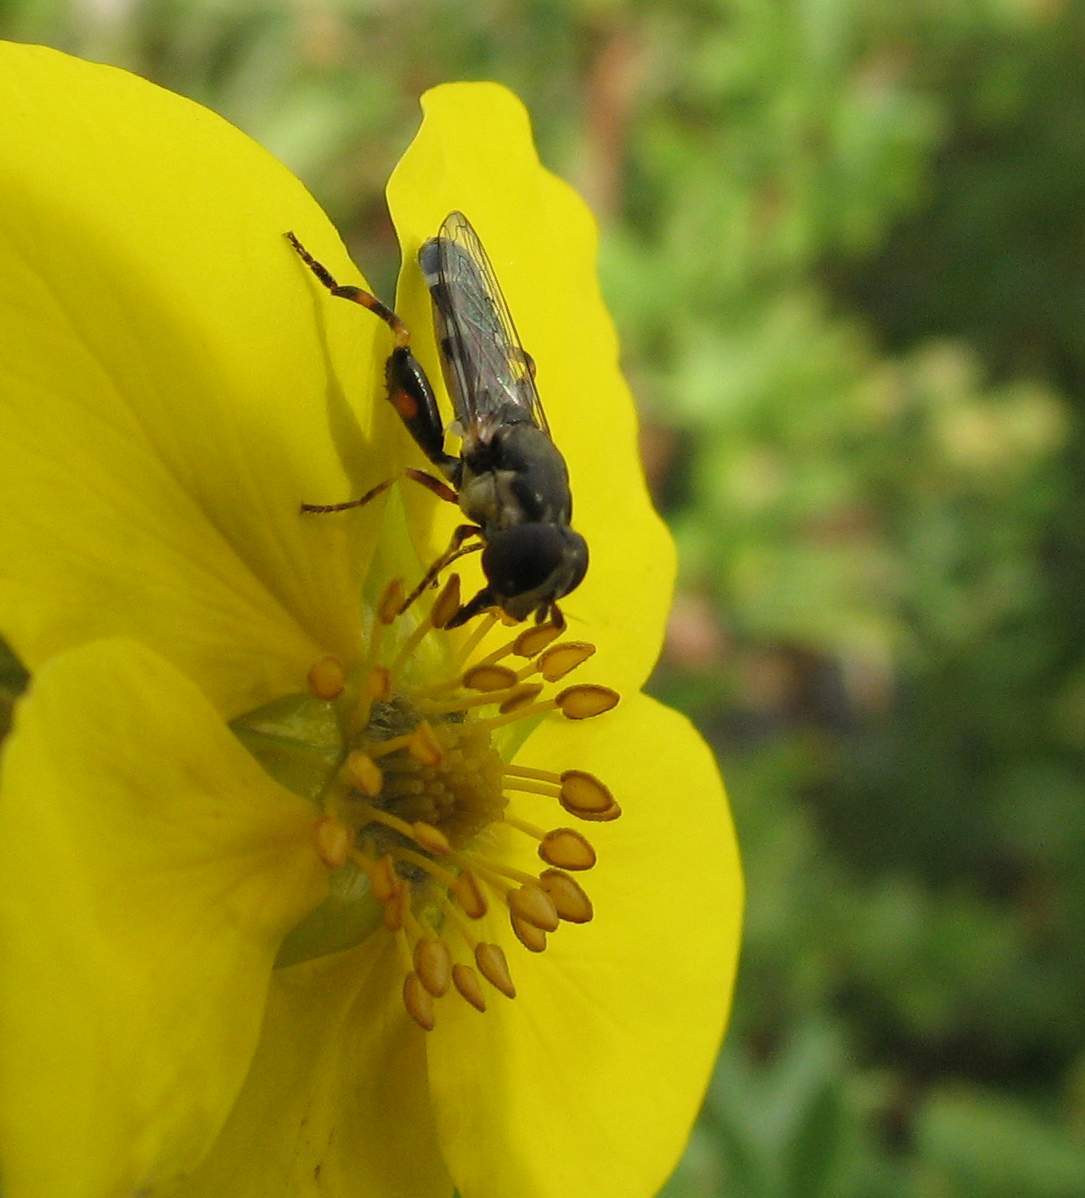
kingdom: Animalia
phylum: Arthropoda
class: Insecta
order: Diptera
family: Syrphidae
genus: Syritta
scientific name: Syritta pipiens
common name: Hover fly
